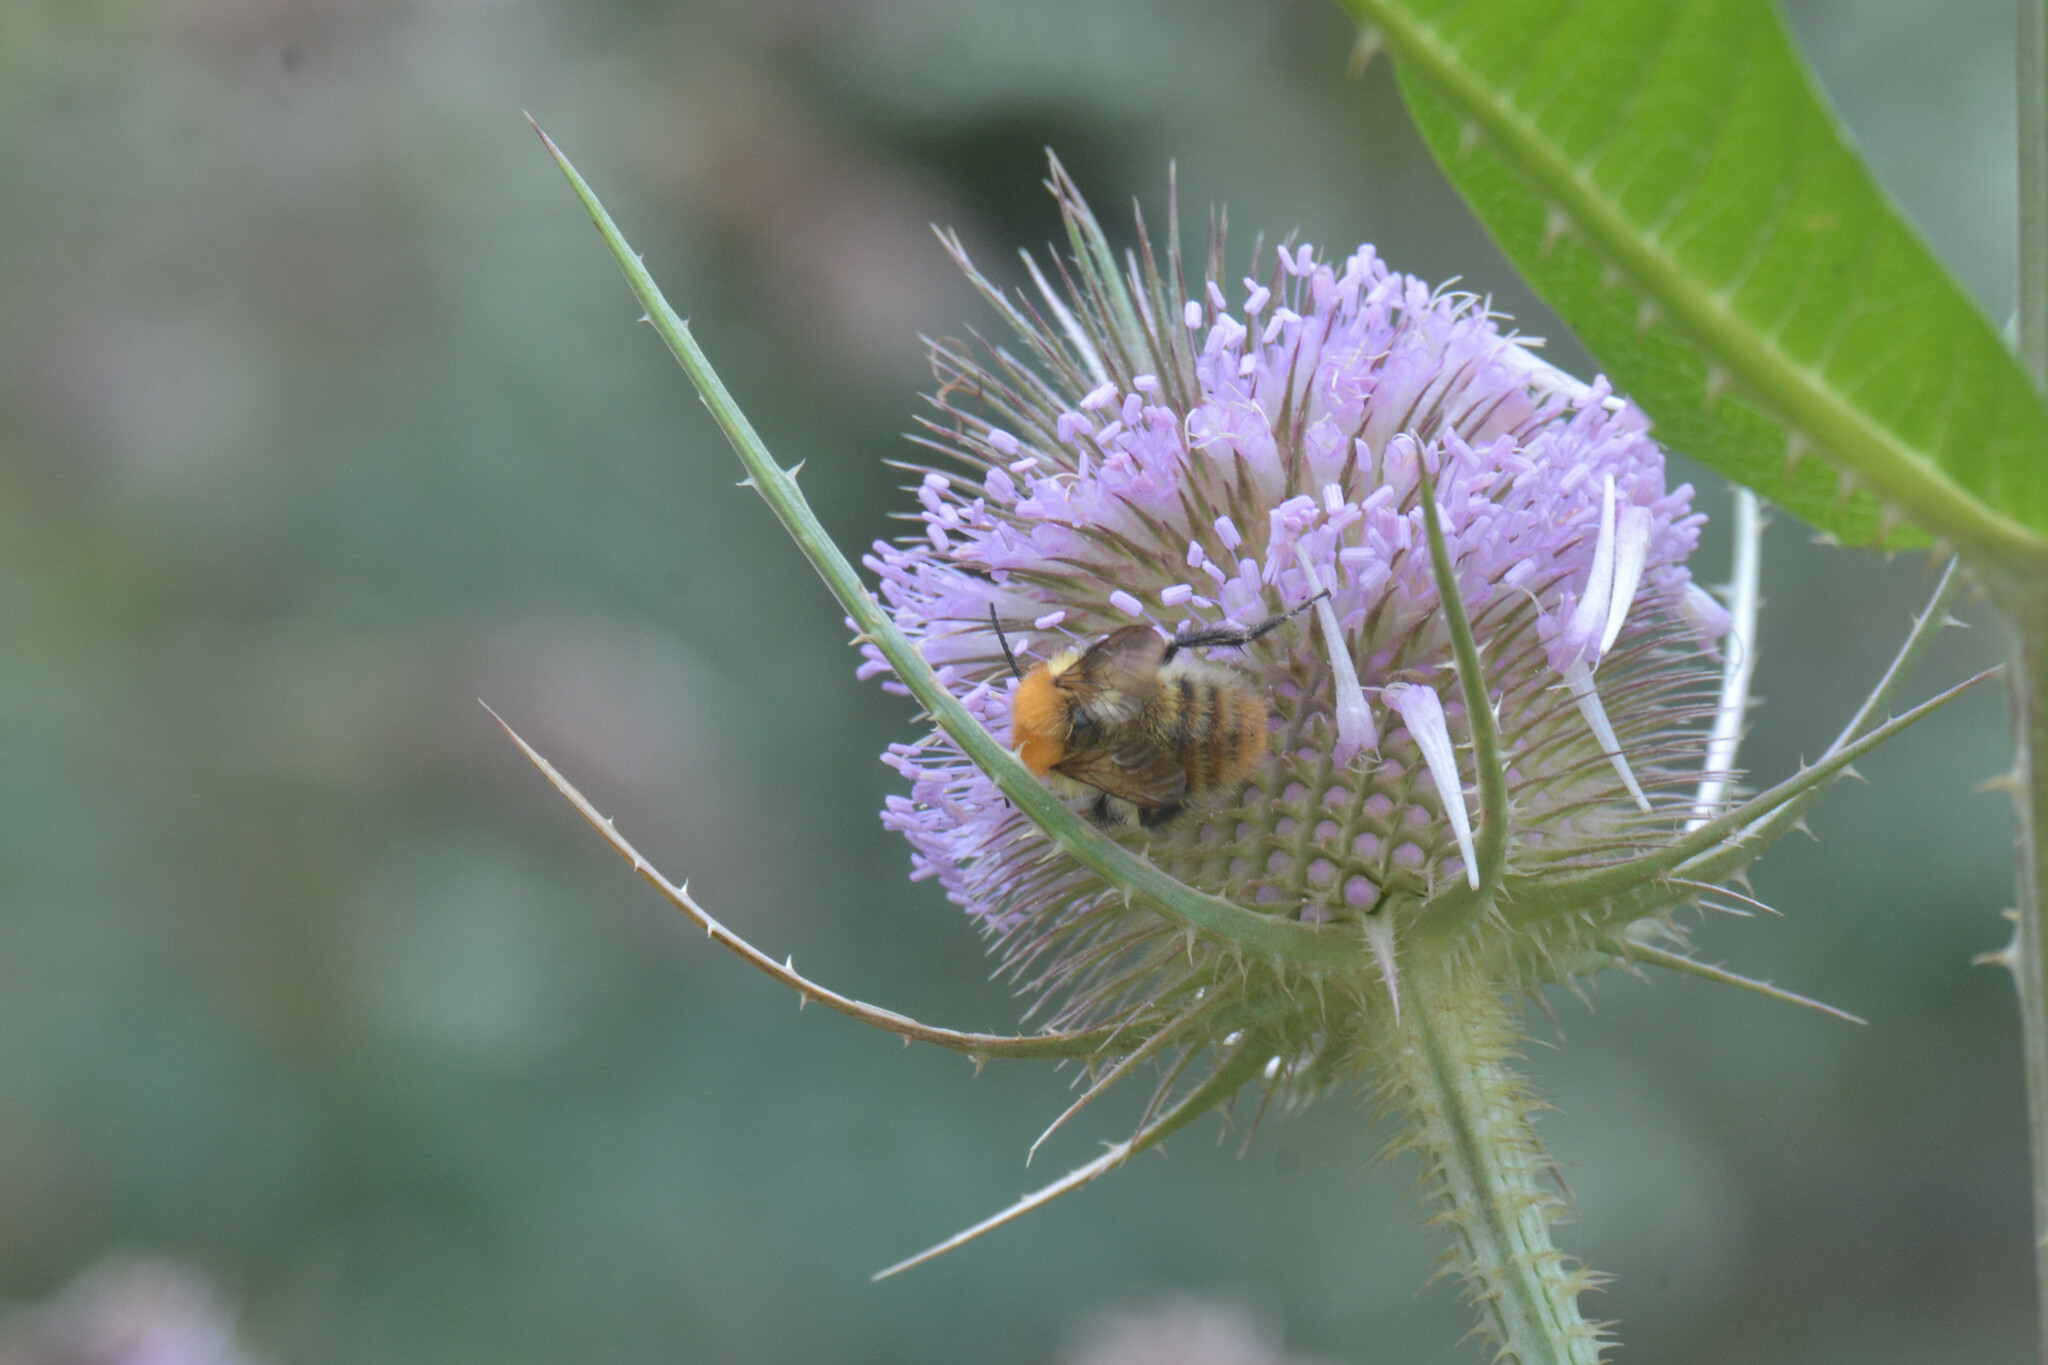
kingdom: Animalia
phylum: Arthropoda
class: Insecta
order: Hymenoptera
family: Apidae
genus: Bombus
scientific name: Bombus pascuorum
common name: Common carder bee
